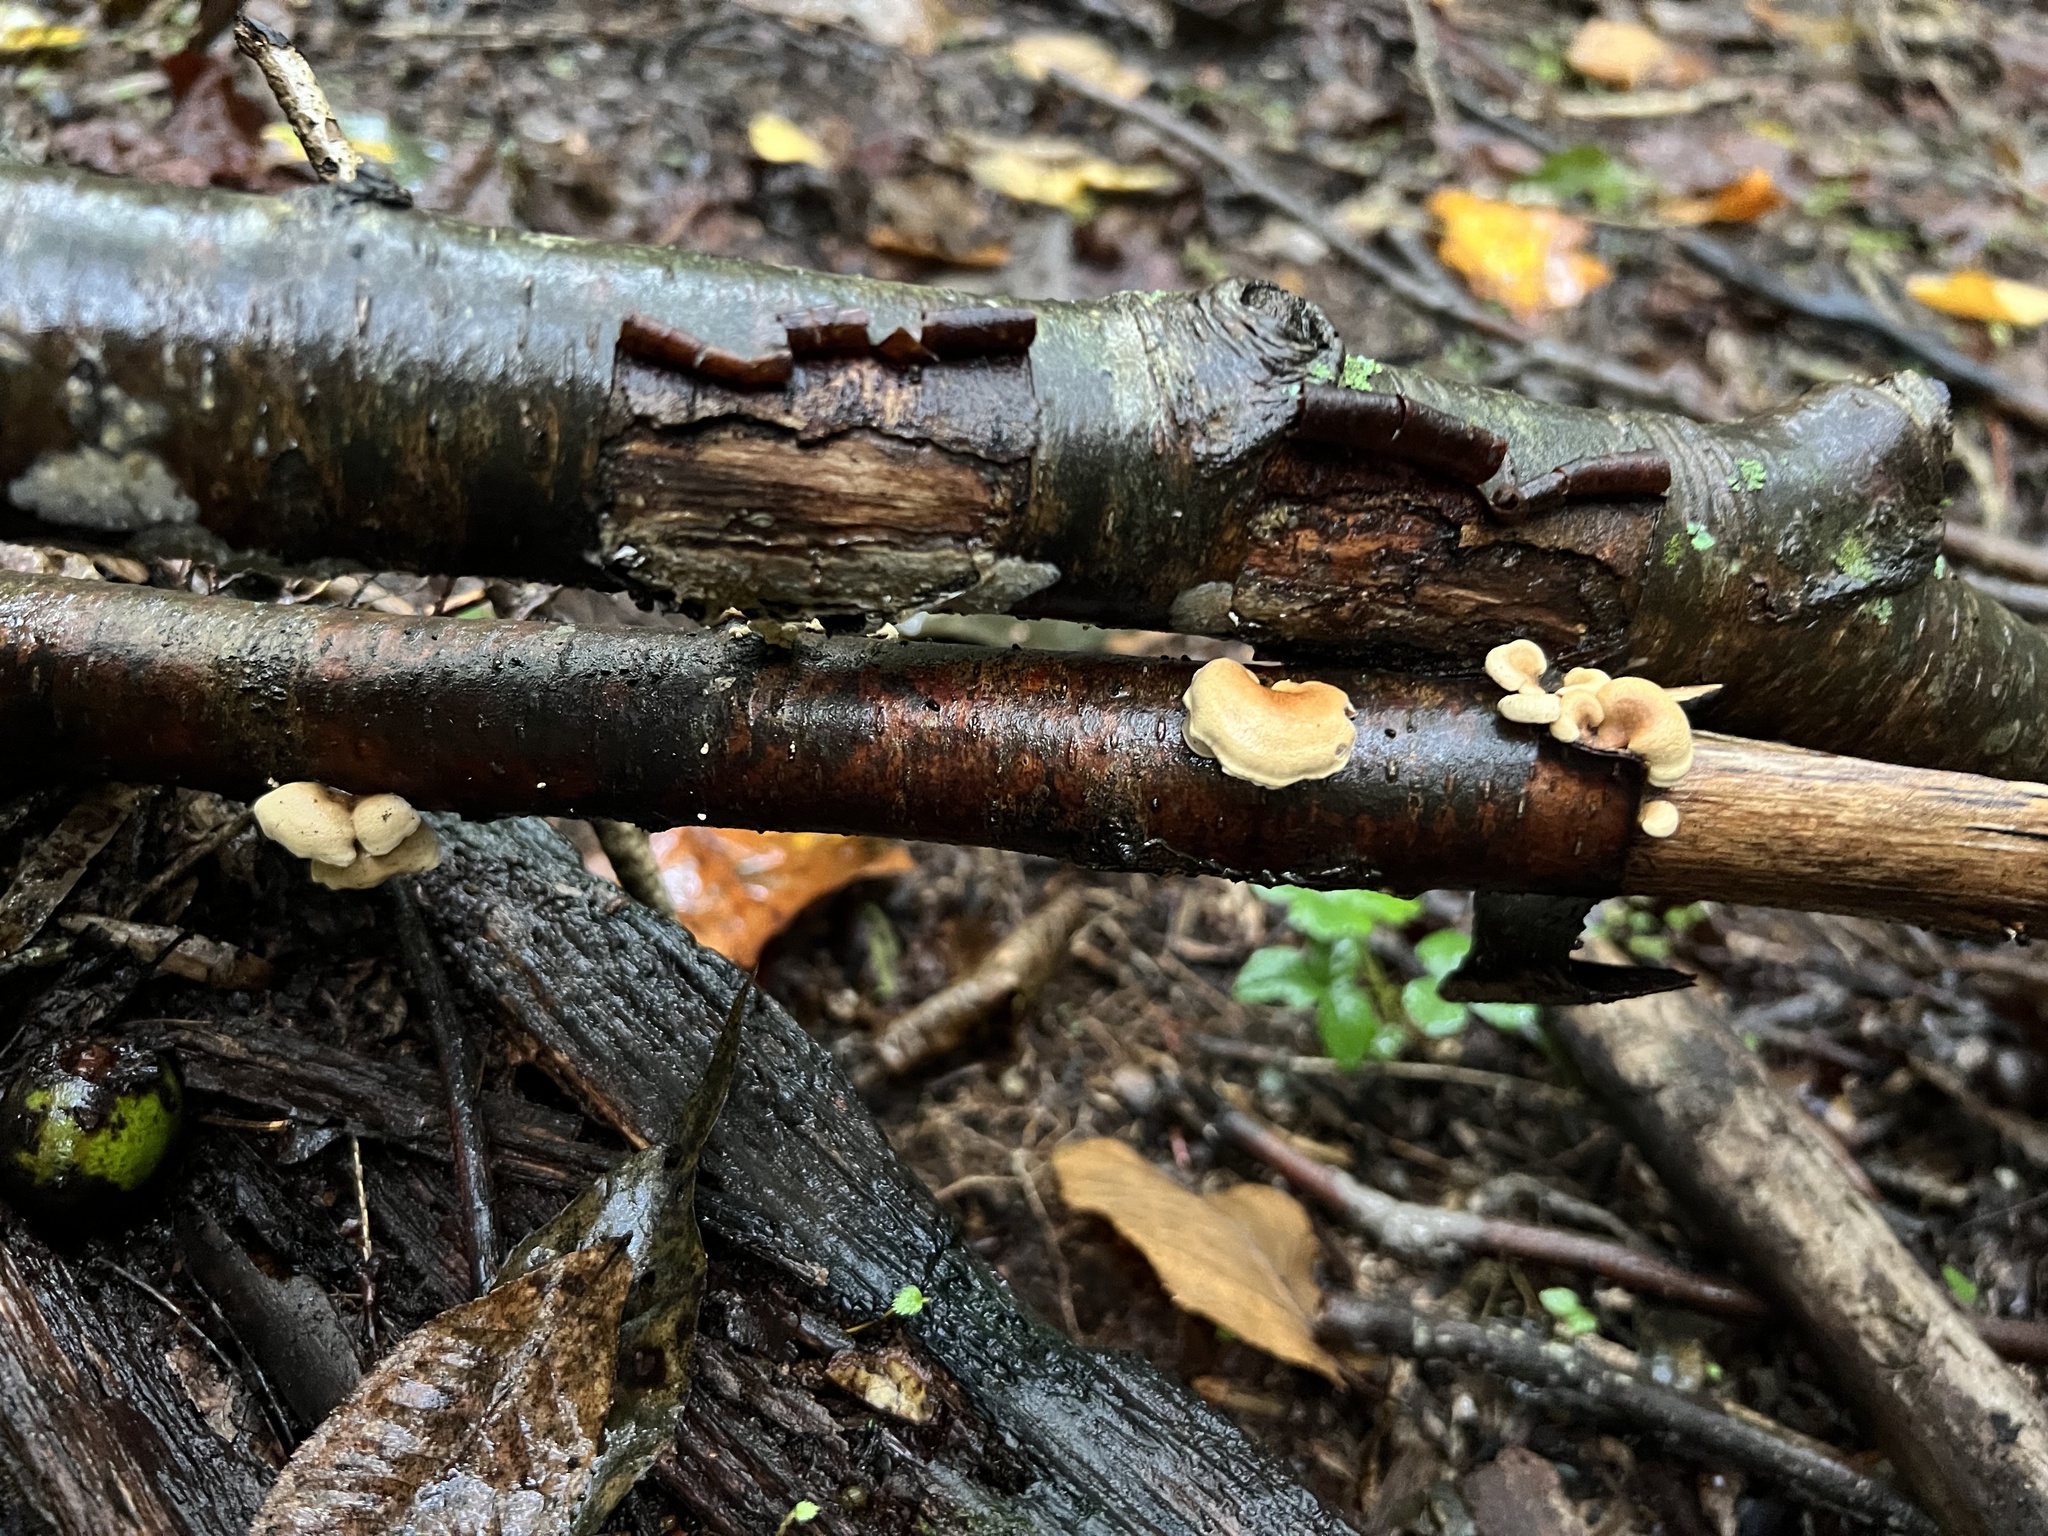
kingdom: Fungi
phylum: Basidiomycota
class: Agaricomycetes
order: Agaricales
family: Mycenaceae
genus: Panellus
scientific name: Panellus stipticus
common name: Bitter oysterling
